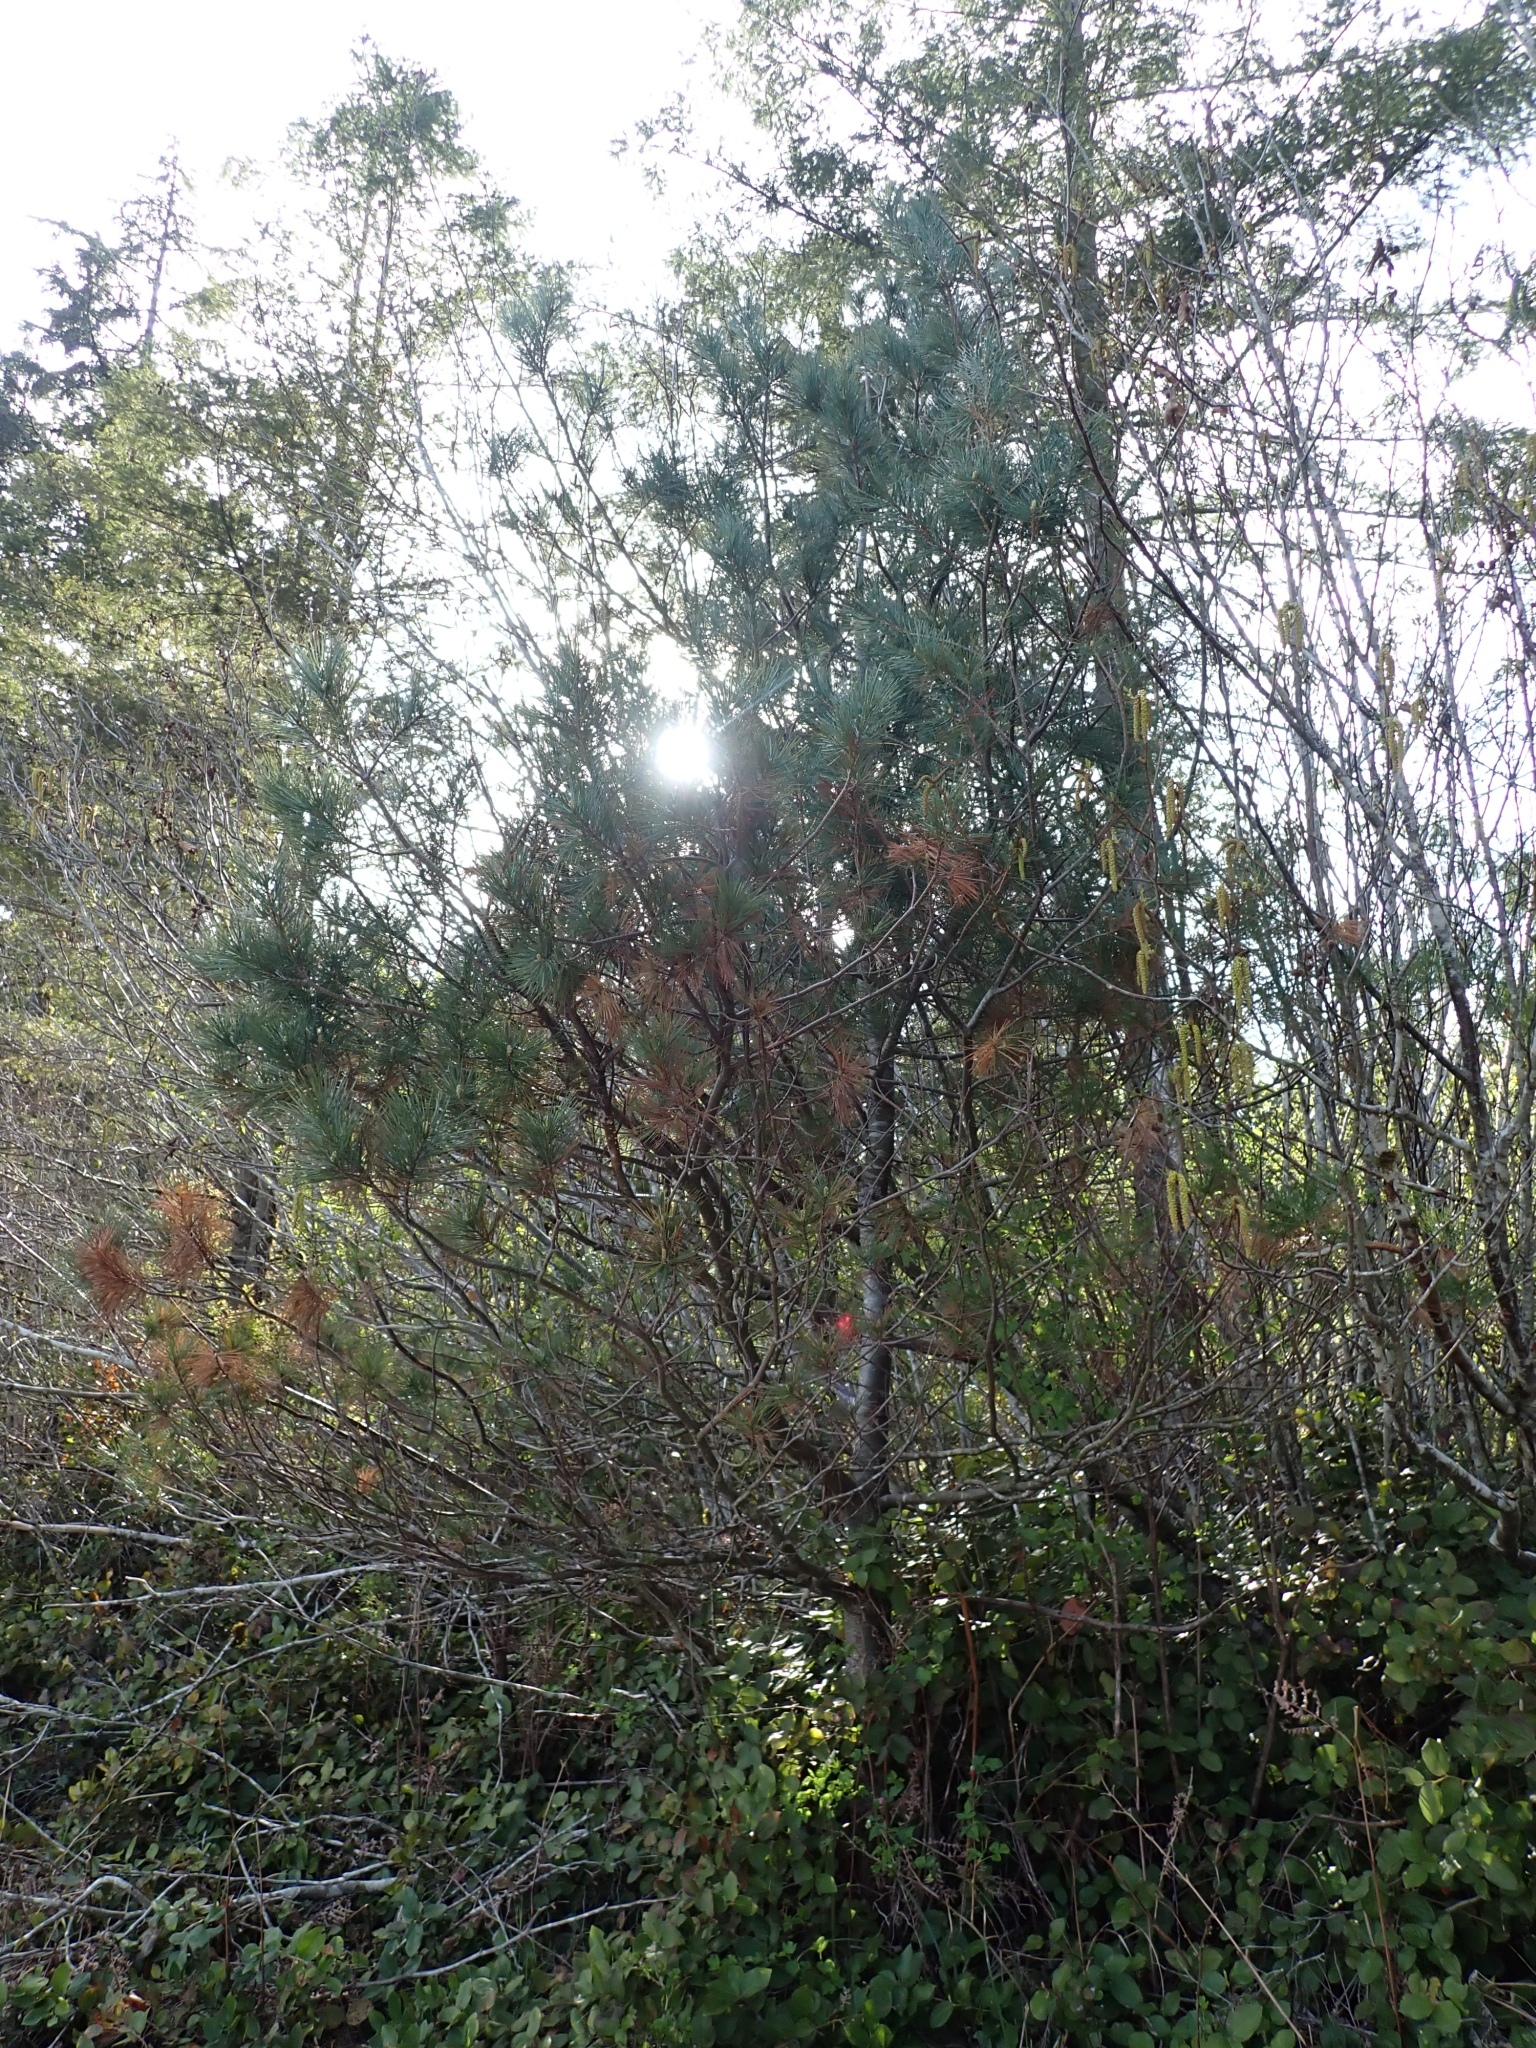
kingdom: Plantae
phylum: Tracheophyta
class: Pinopsida
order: Pinales
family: Pinaceae
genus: Pinus
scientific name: Pinus monticola
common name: Western white pine
